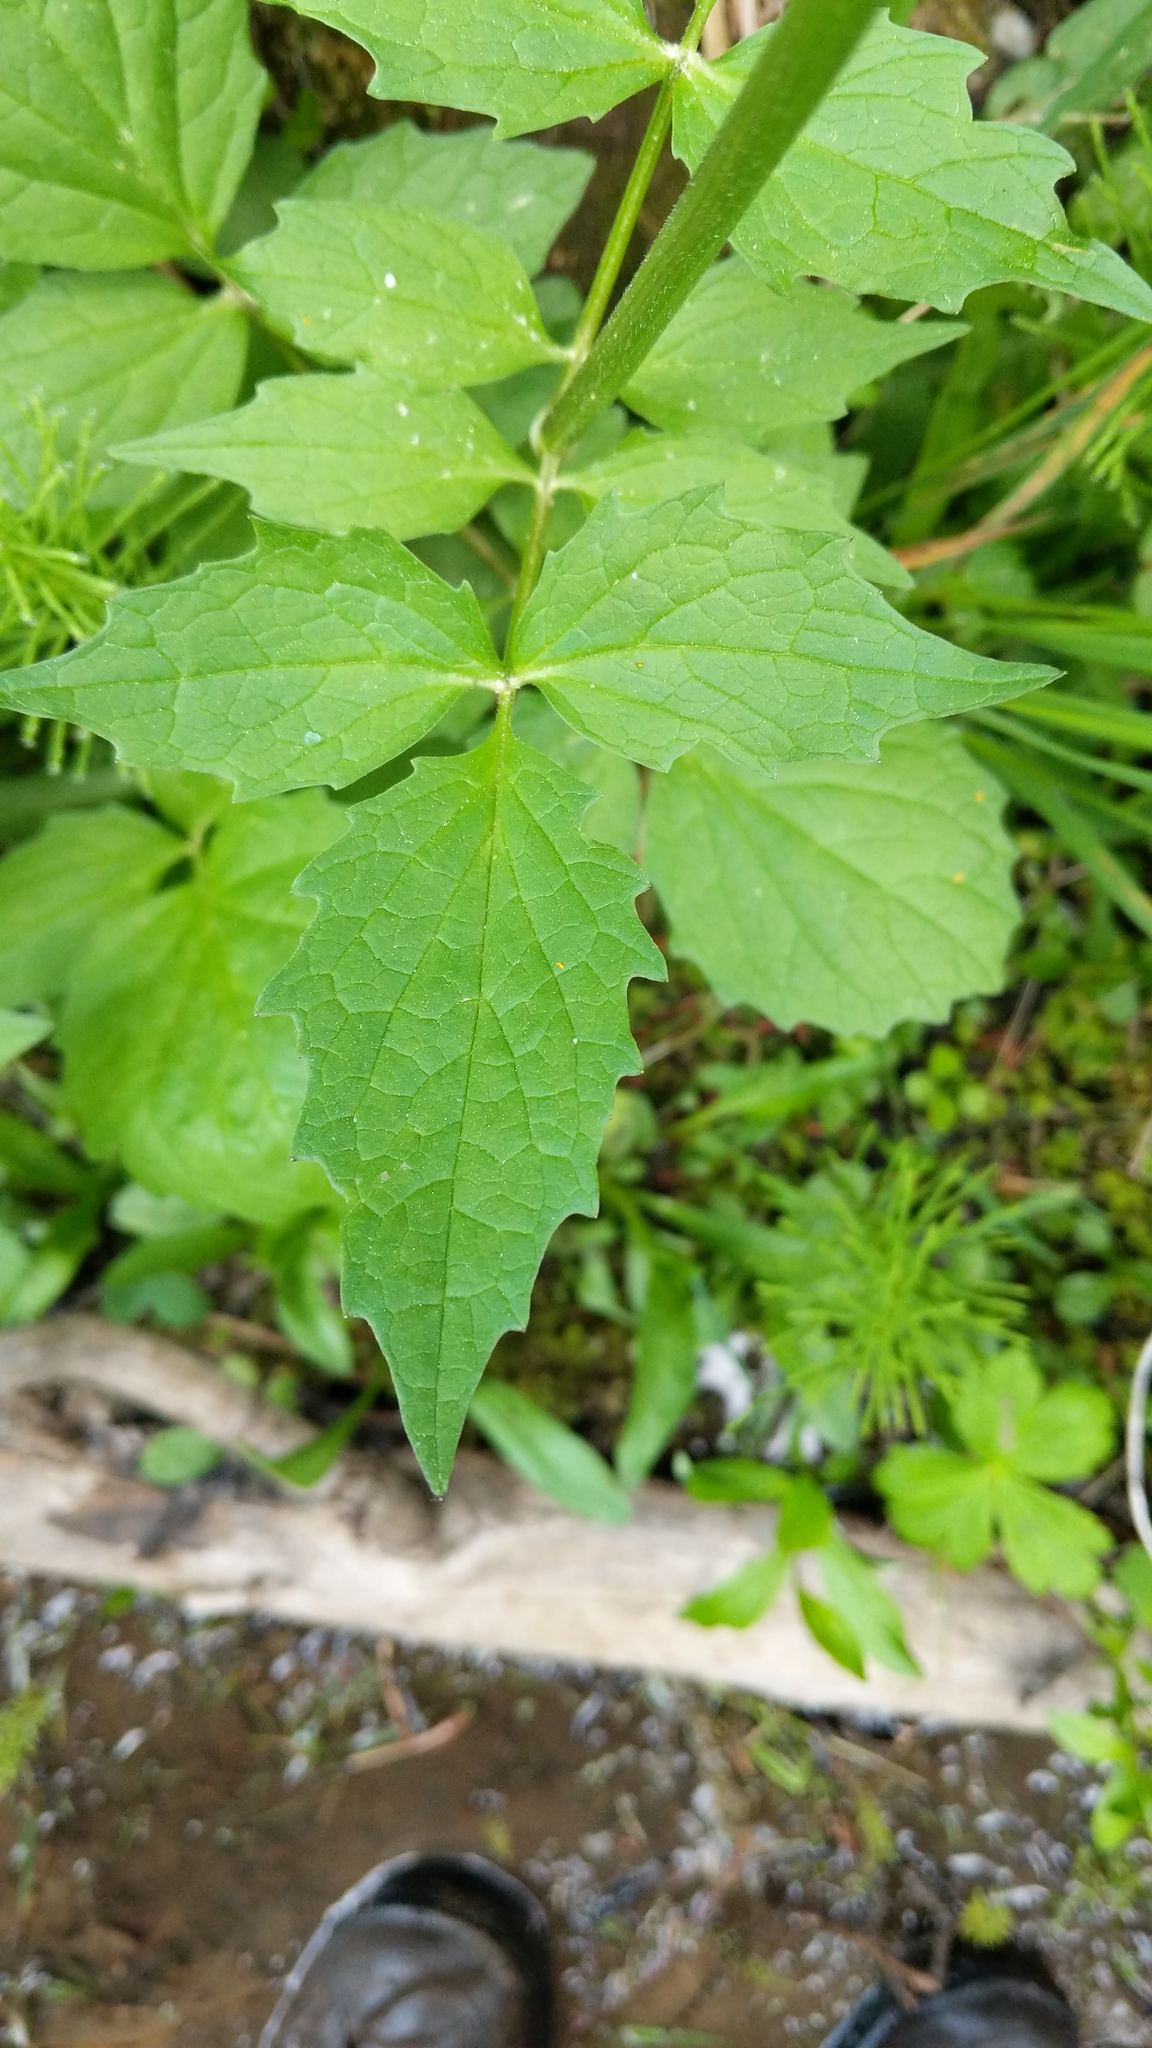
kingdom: Plantae
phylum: Tracheophyta
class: Magnoliopsida
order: Dipsacales
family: Caprifoliaceae
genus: Valeriana
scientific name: Valeriana sitchensis
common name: Pacific valerian
